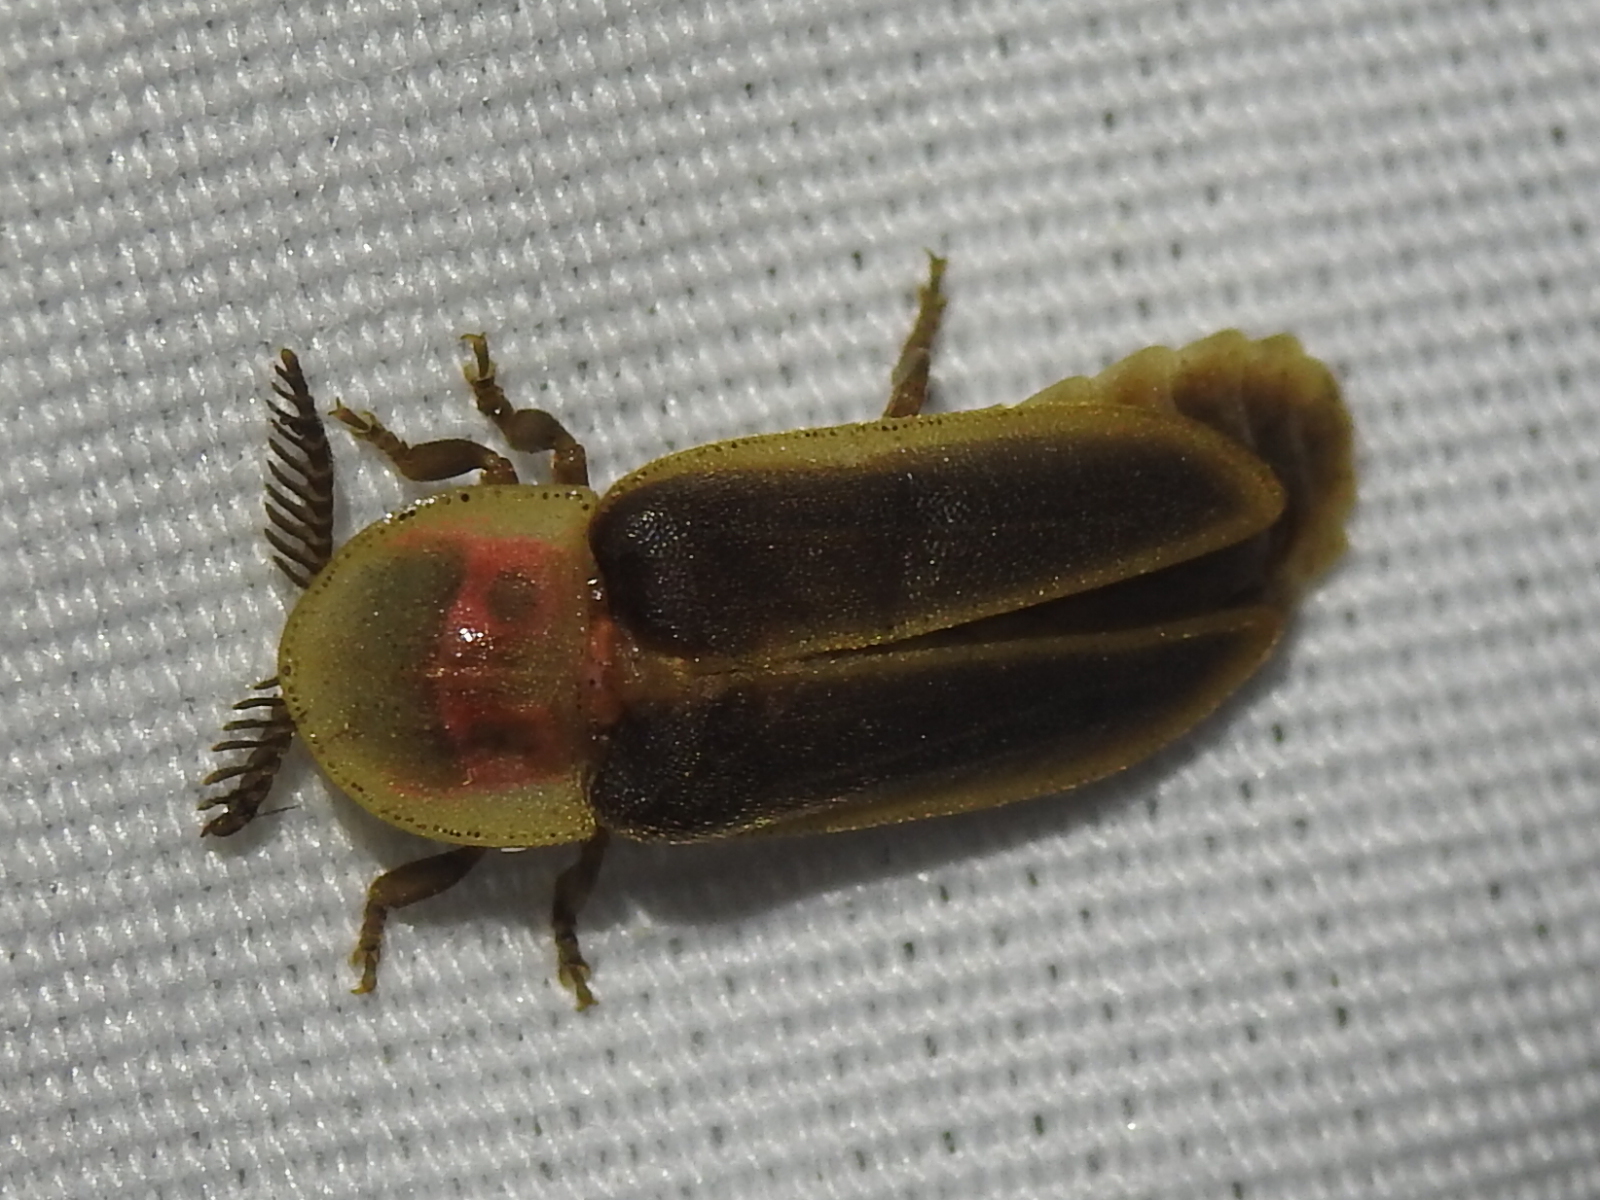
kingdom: Animalia
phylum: Arthropoda
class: Insecta
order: Coleoptera
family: Lampyridae
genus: Pleotomus
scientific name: Pleotomus pallens
